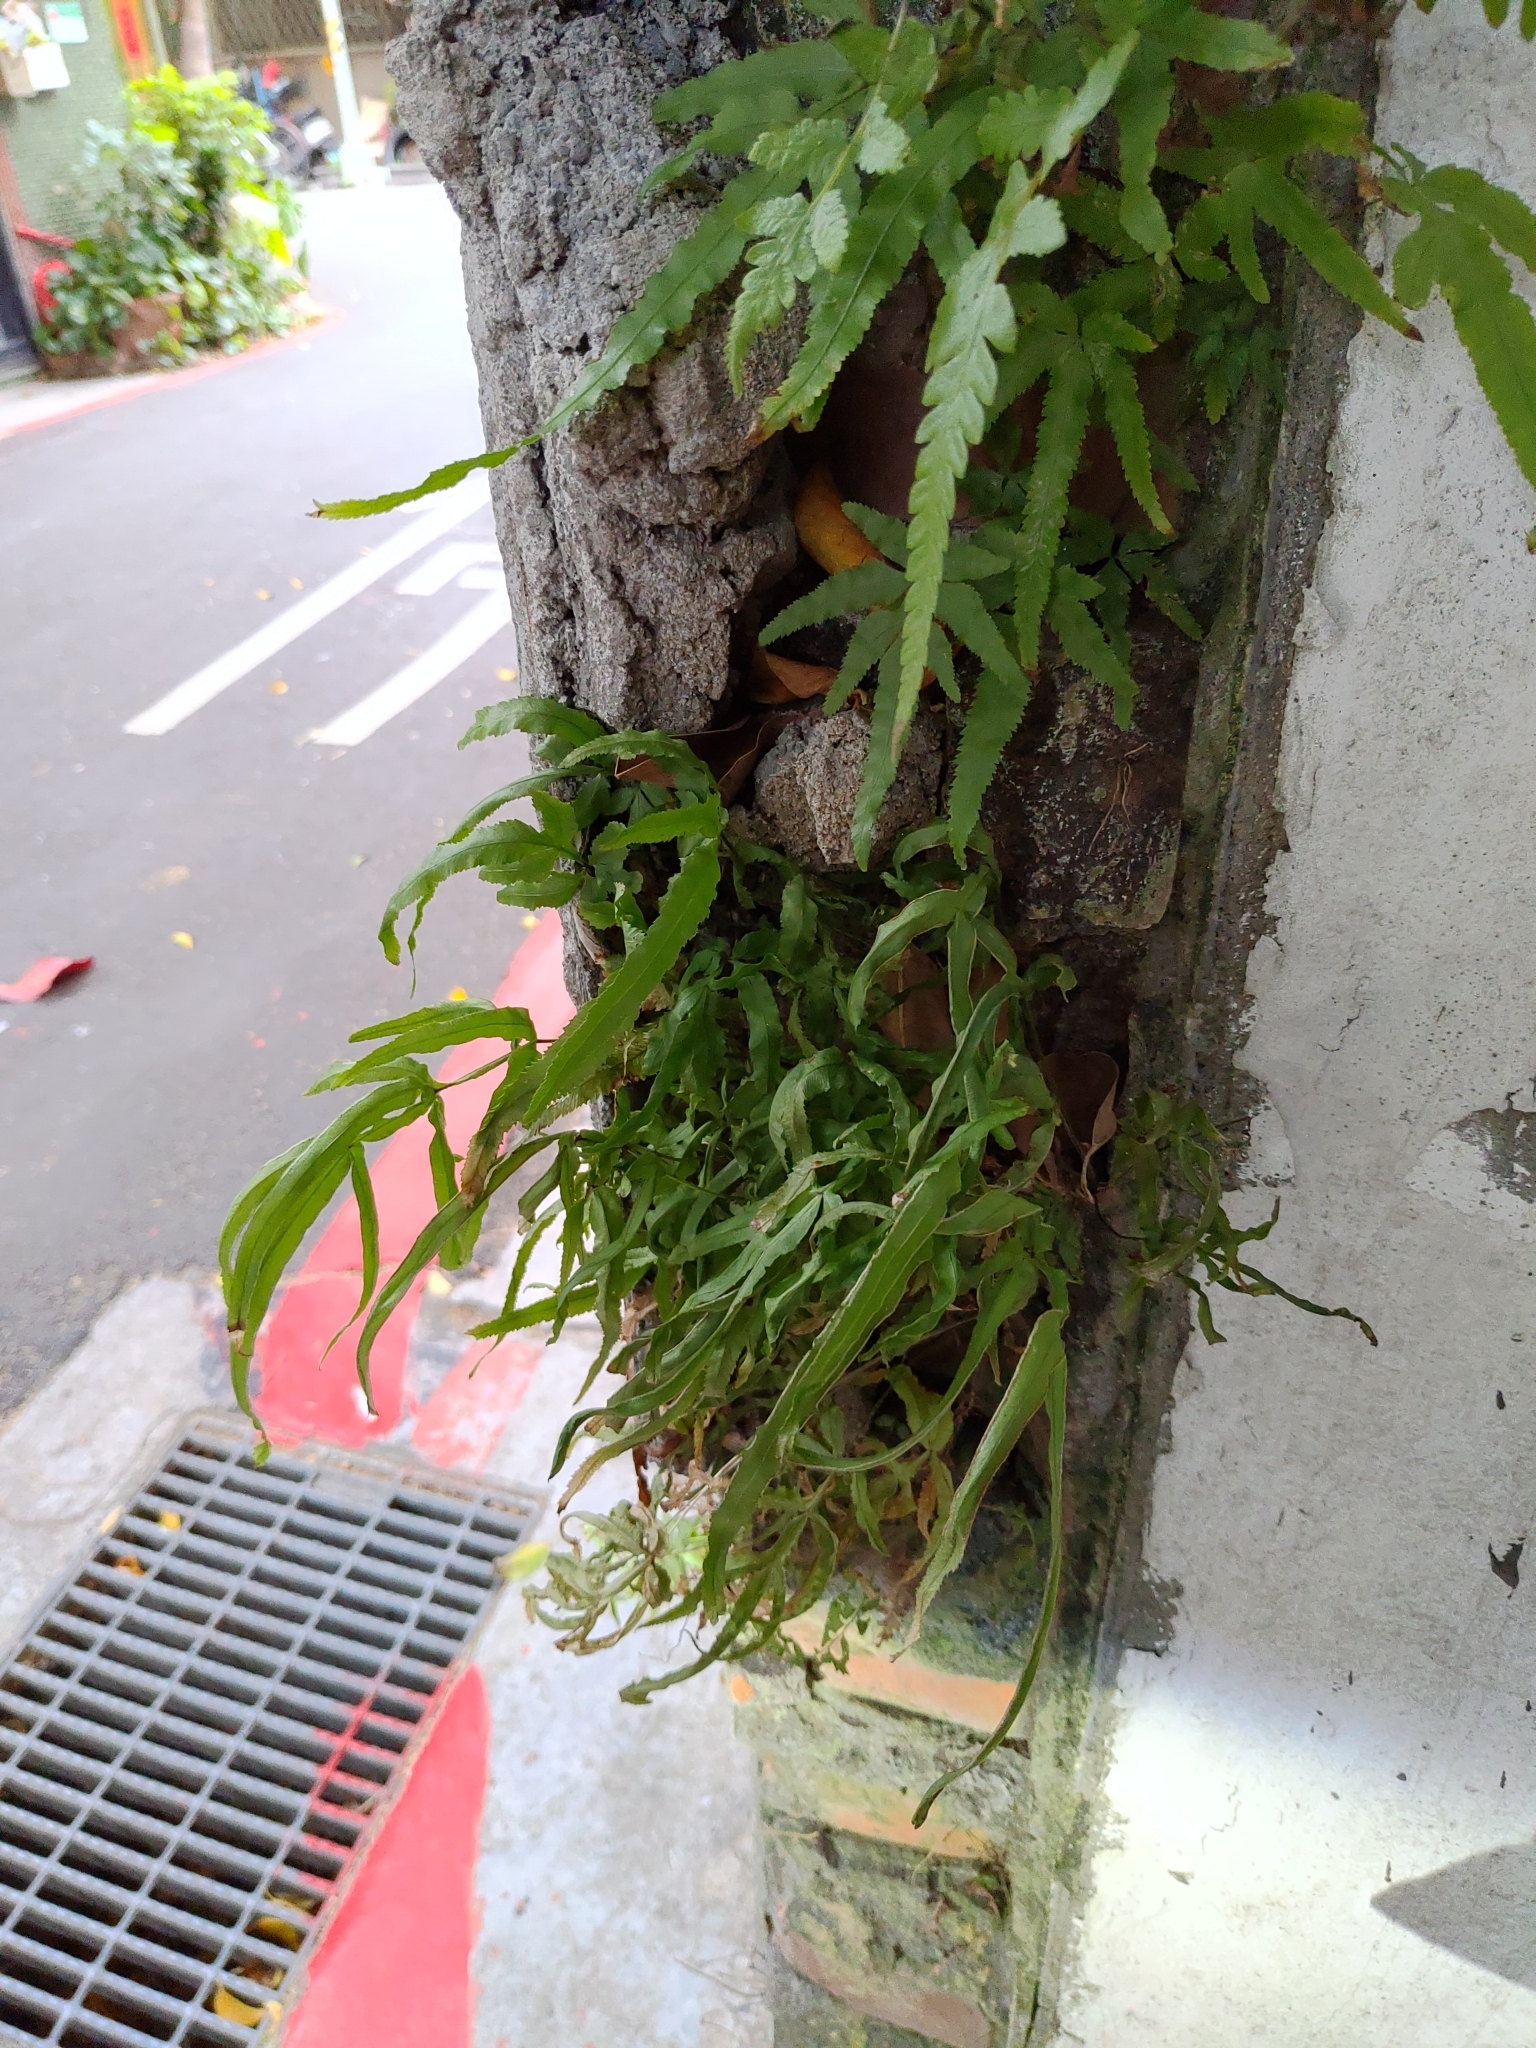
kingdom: Plantae
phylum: Tracheophyta
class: Polypodiopsida
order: Polypodiales
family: Pteridaceae
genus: Pteris
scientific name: Pteris multifida
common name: Spider brake
